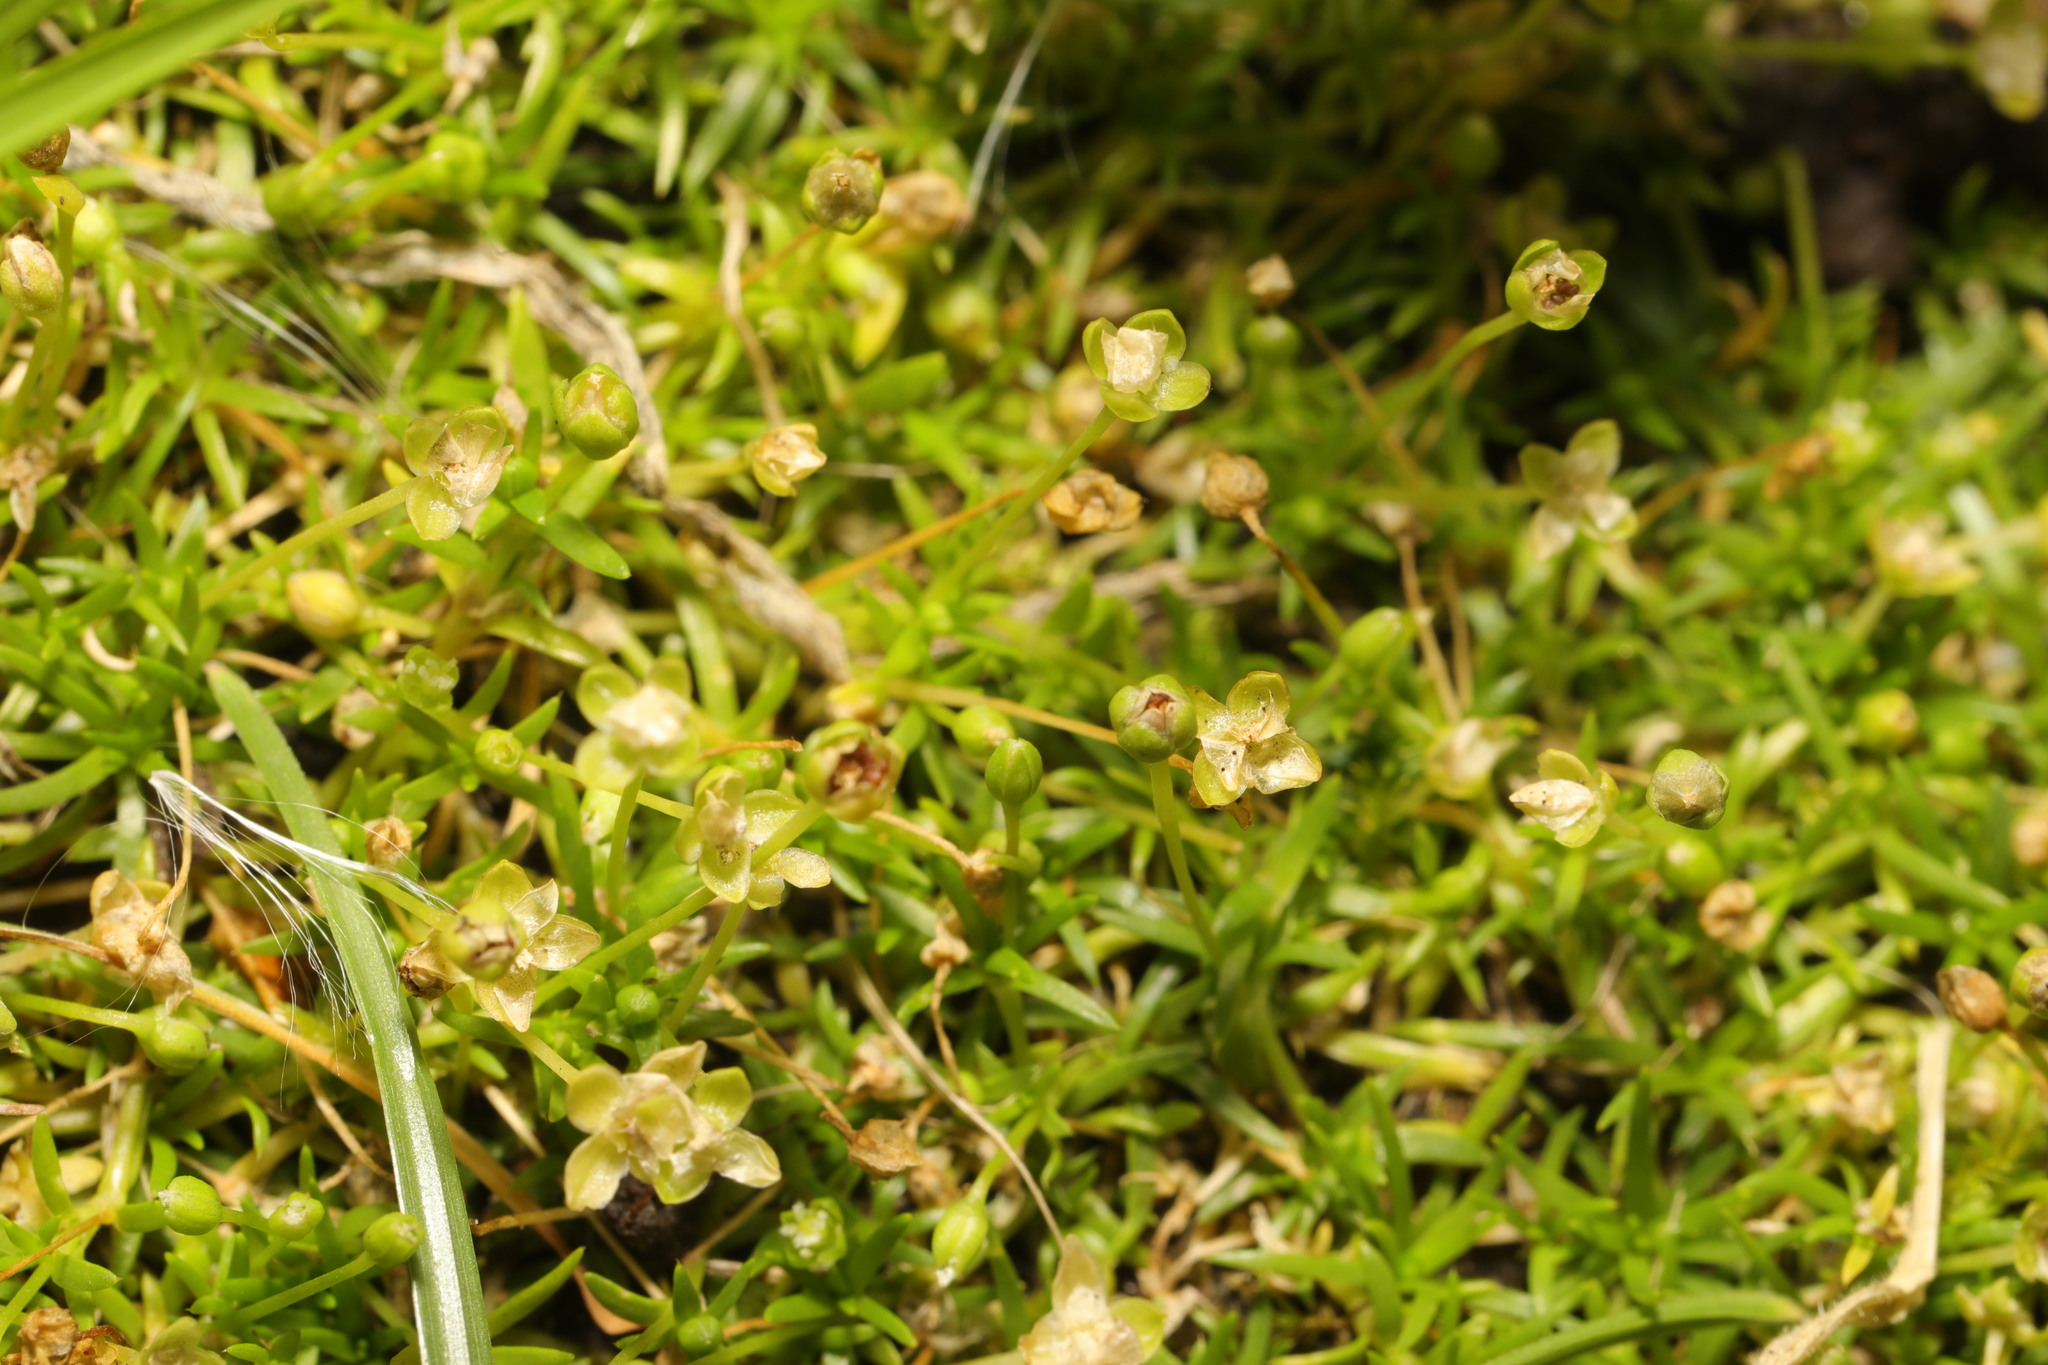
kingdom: Plantae
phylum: Tracheophyta
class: Magnoliopsida
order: Caryophyllales
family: Caryophyllaceae
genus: Sagina
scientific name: Sagina procumbens
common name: Procumbent pearlwort
